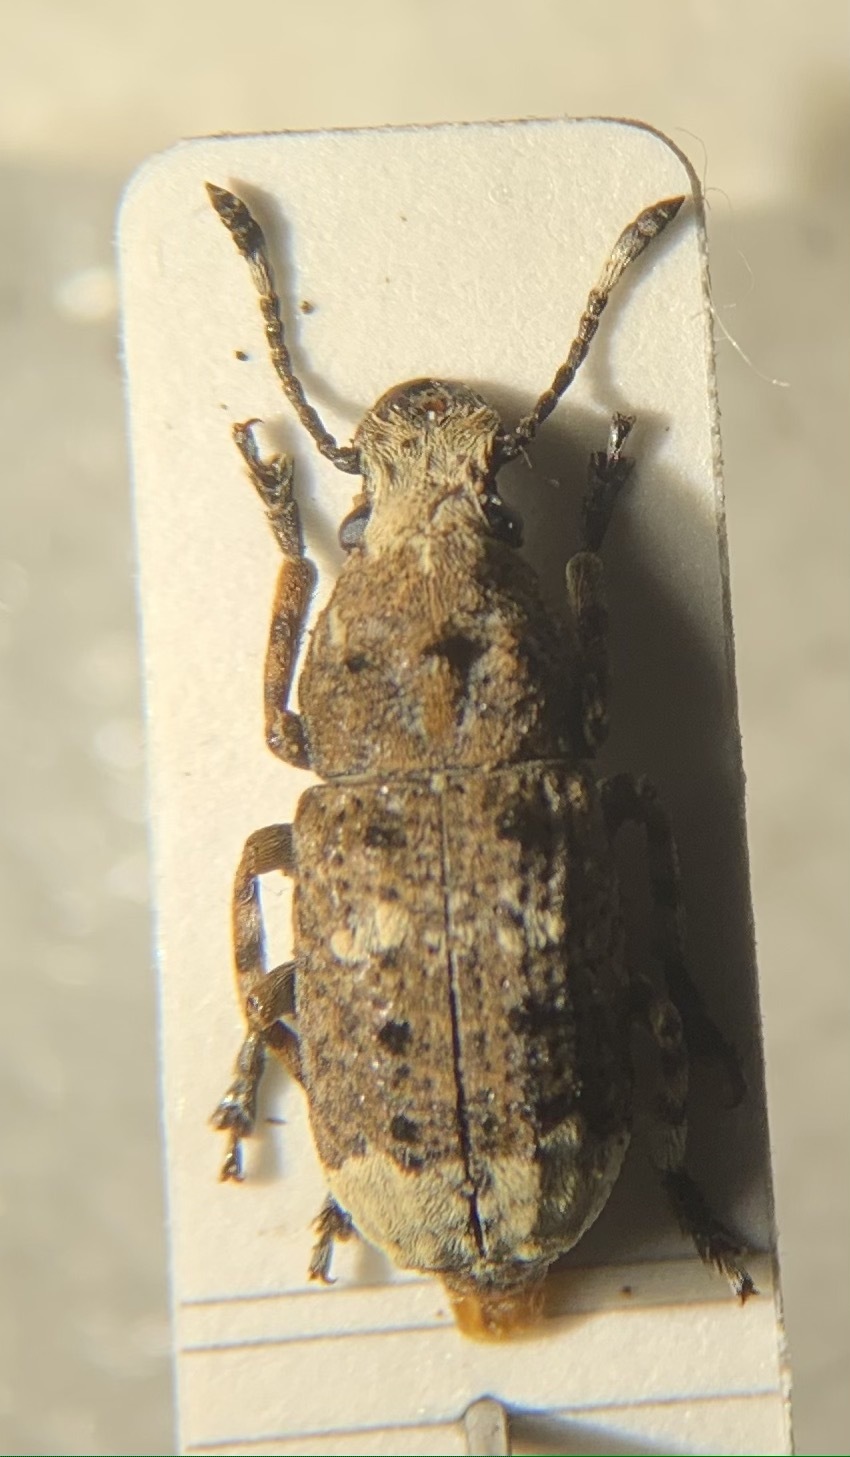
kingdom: Animalia
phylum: Arthropoda
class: Insecta
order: Coleoptera
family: Anthribidae
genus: Platystomos
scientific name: Platystomos albinus
